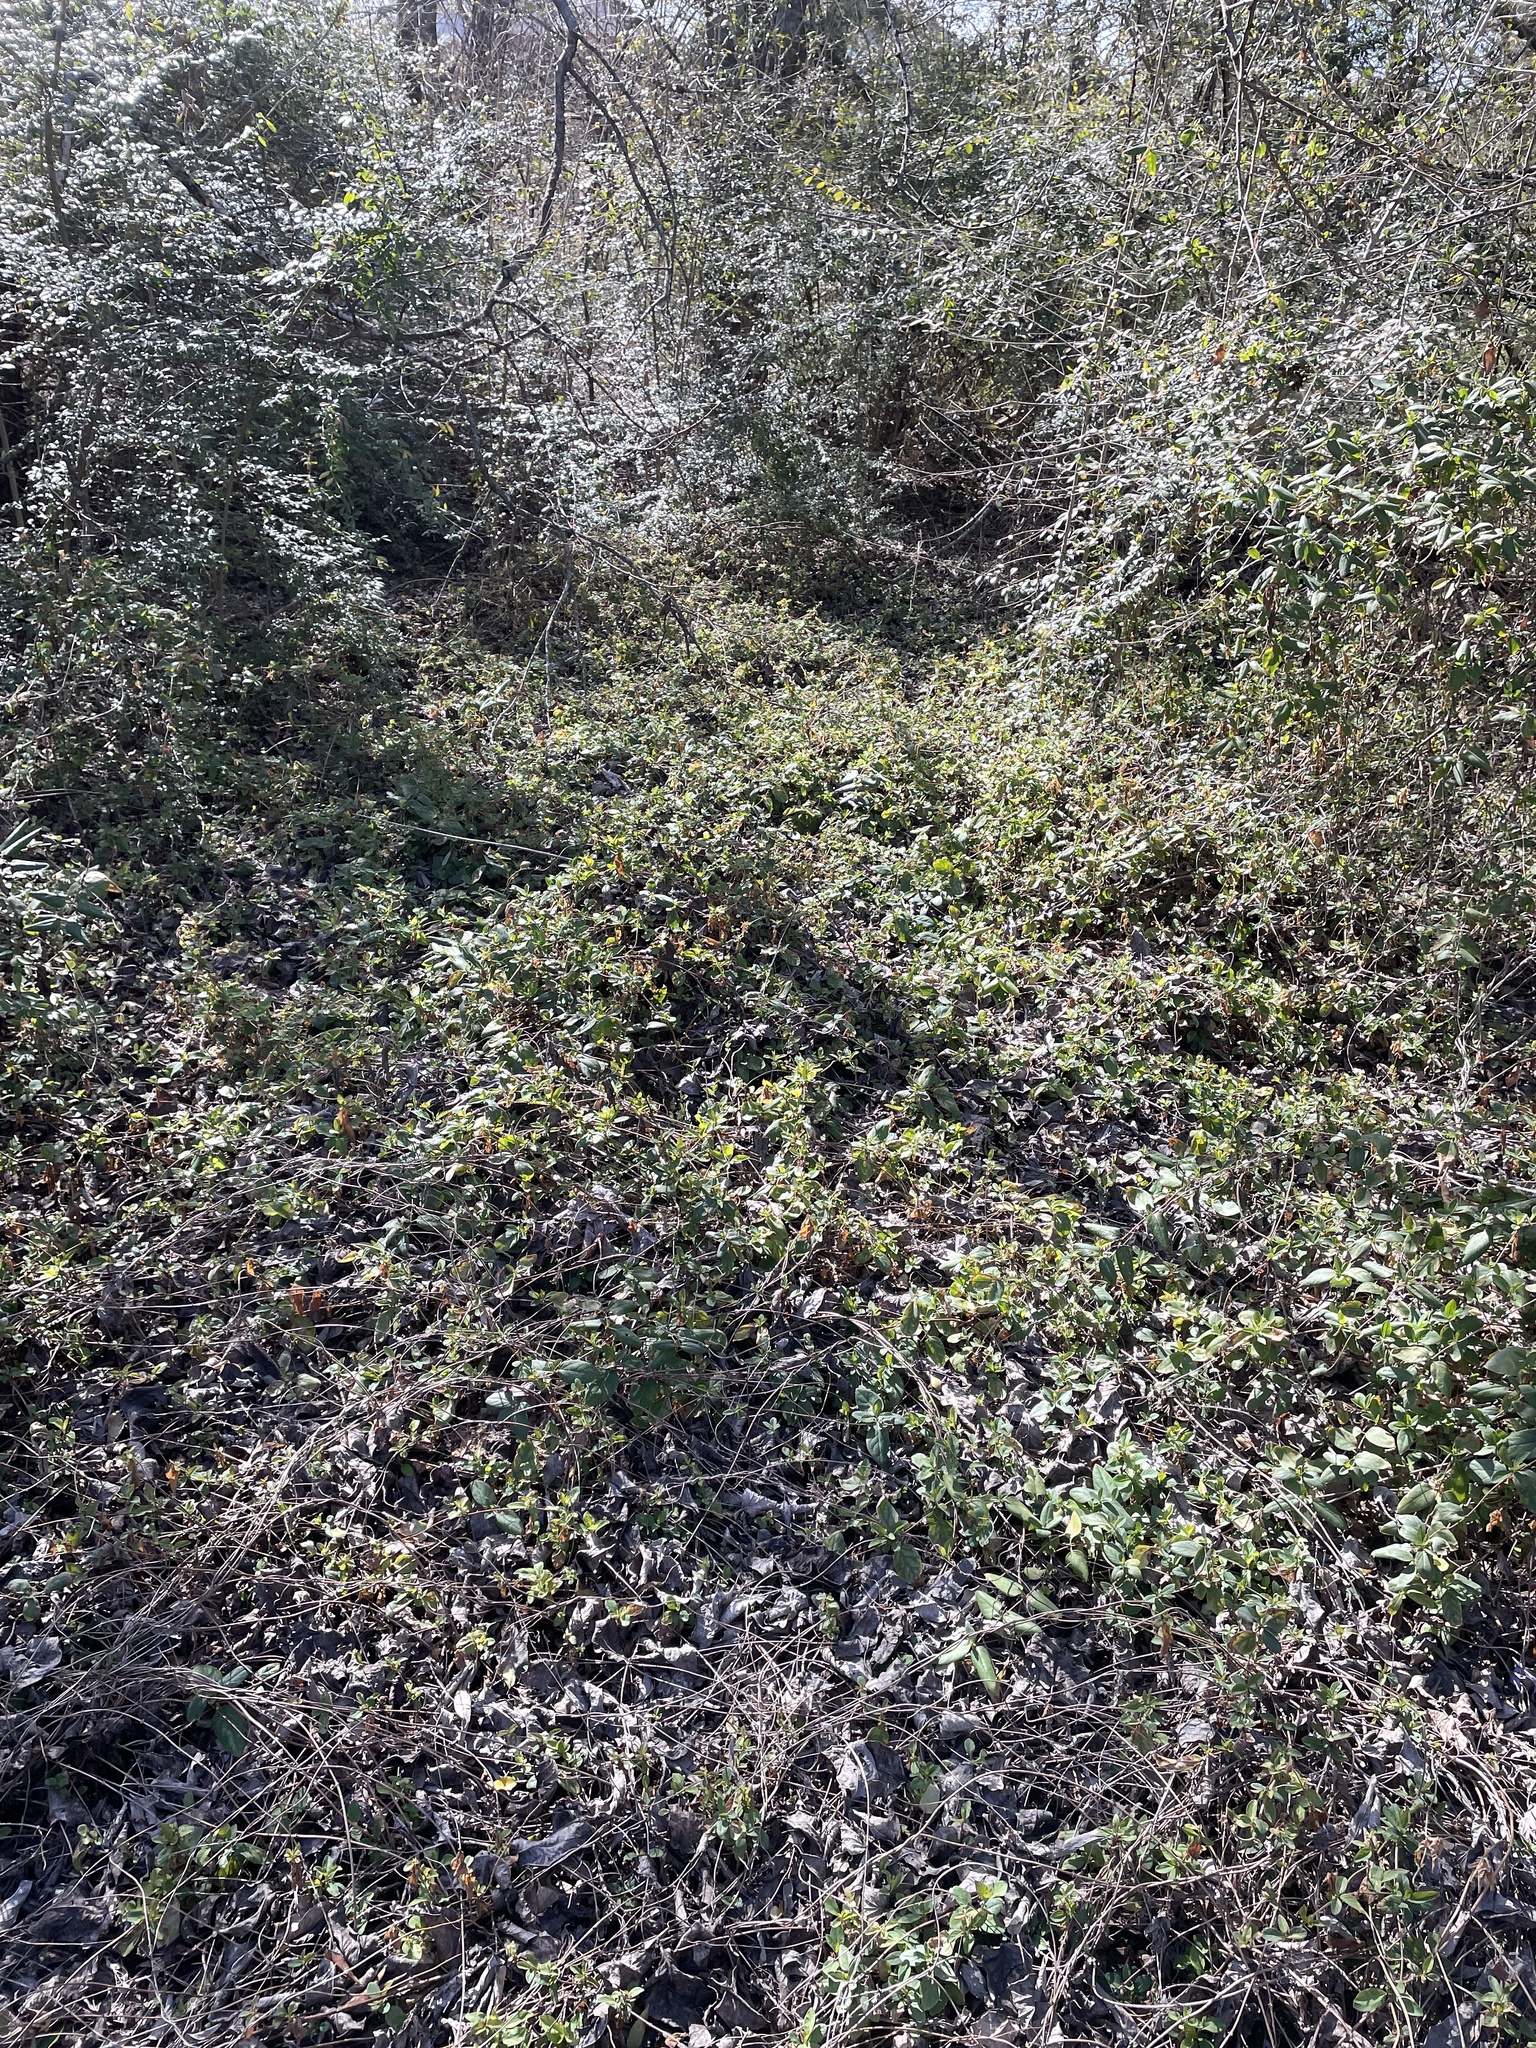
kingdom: Plantae
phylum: Tracheophyta
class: Magnoliopsida
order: Dipsacales
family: Caprifoliaceae
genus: Lonicera
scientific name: Lonicera japonica
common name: Japanese honeysuckle
